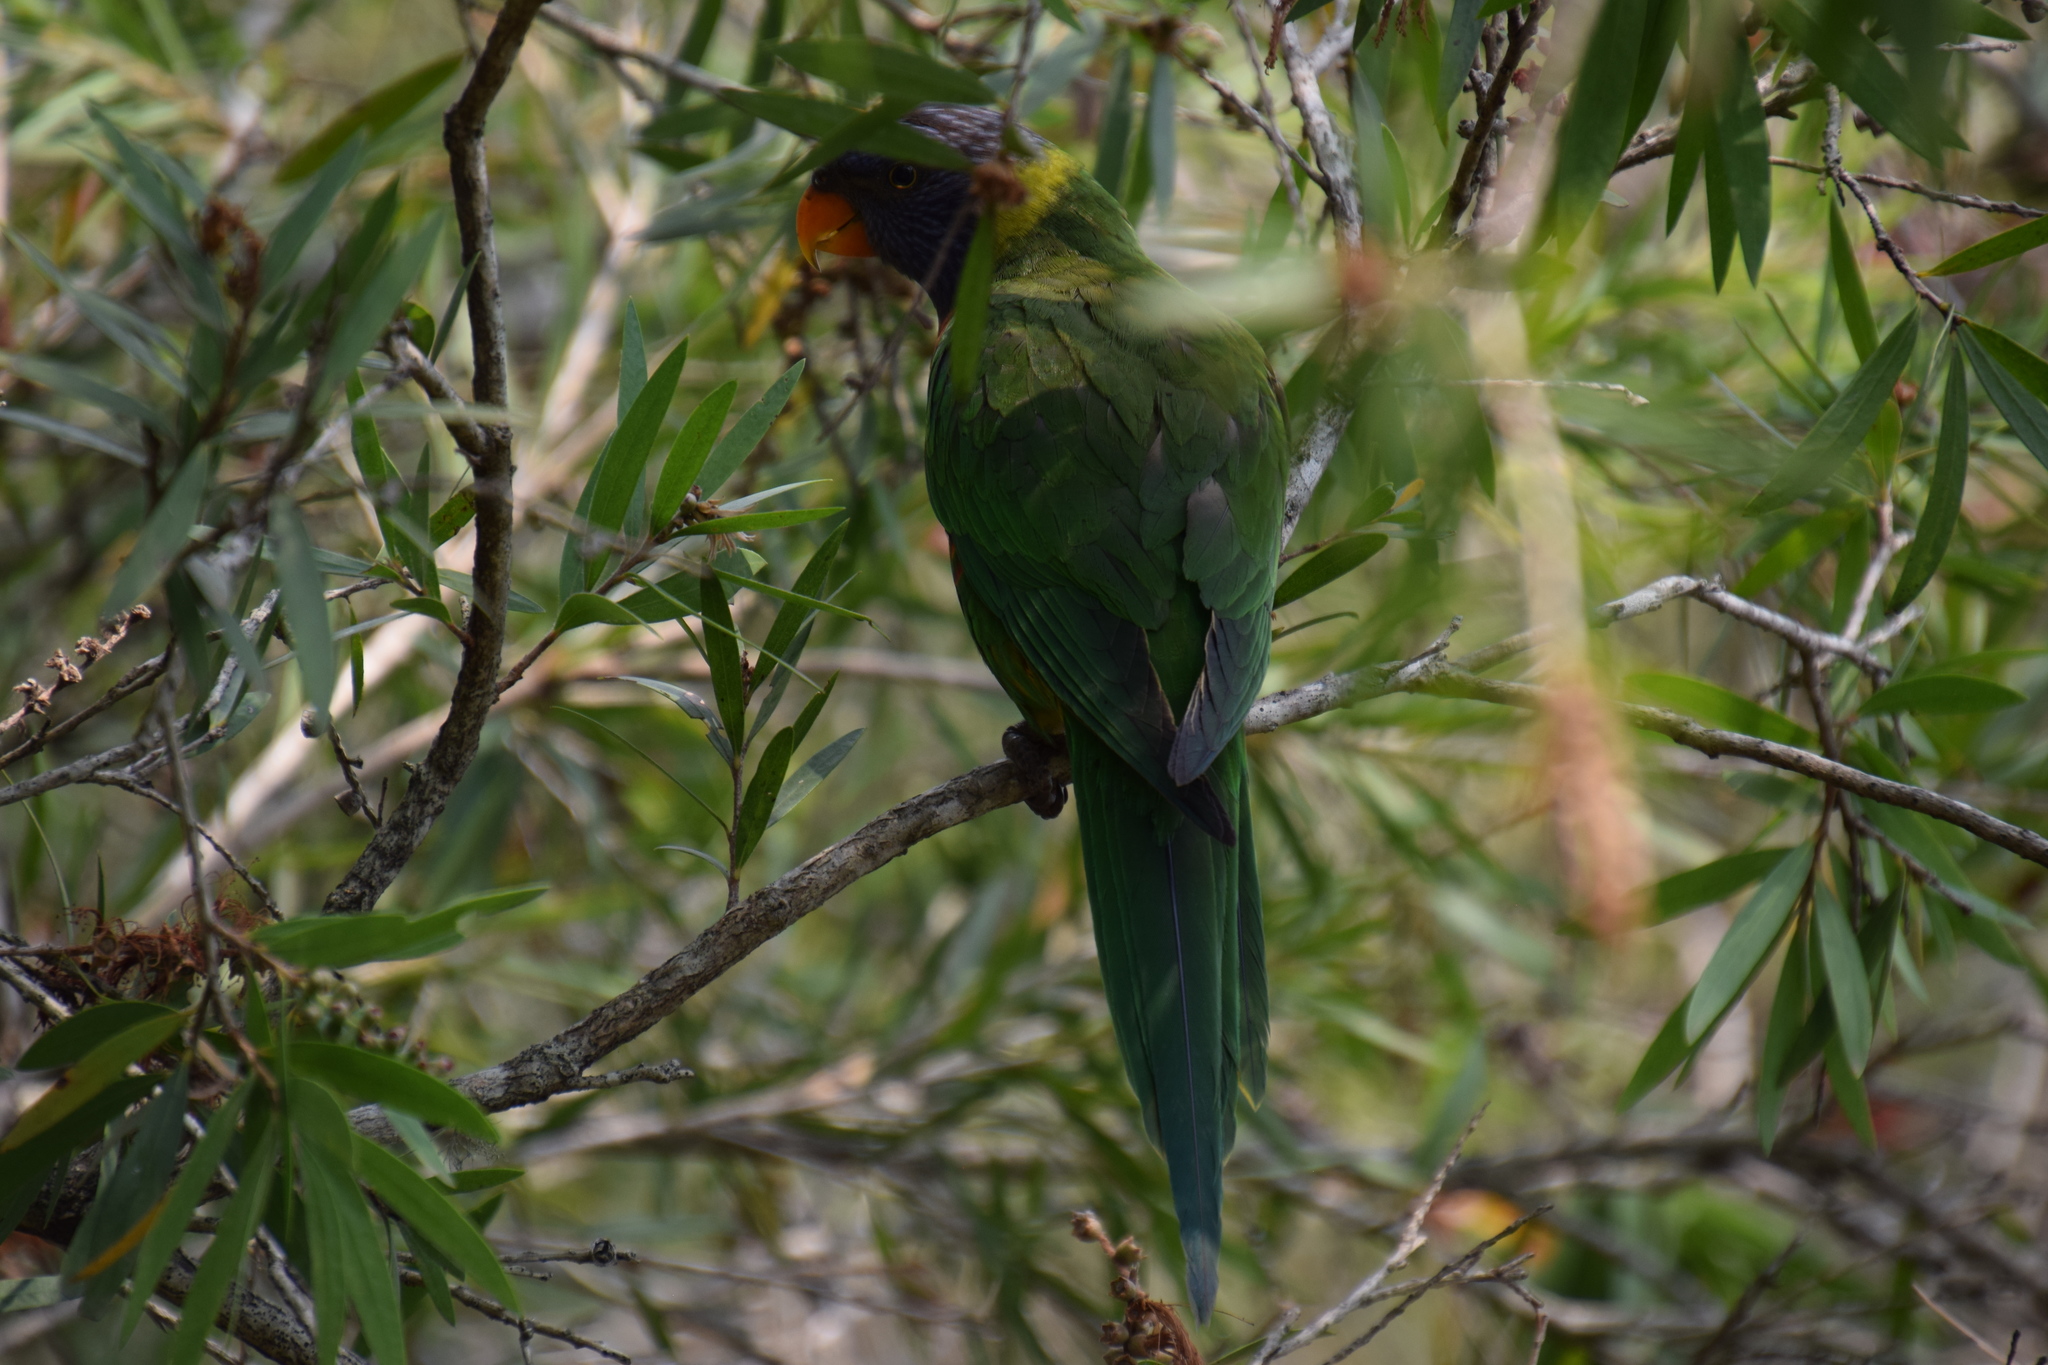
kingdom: Animalia
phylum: Chordata
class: Aves
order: Psittaciformes
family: Psittacidae
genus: Trichoglossus
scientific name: Trichoglossus haematodus
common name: Coconut lorikeet
